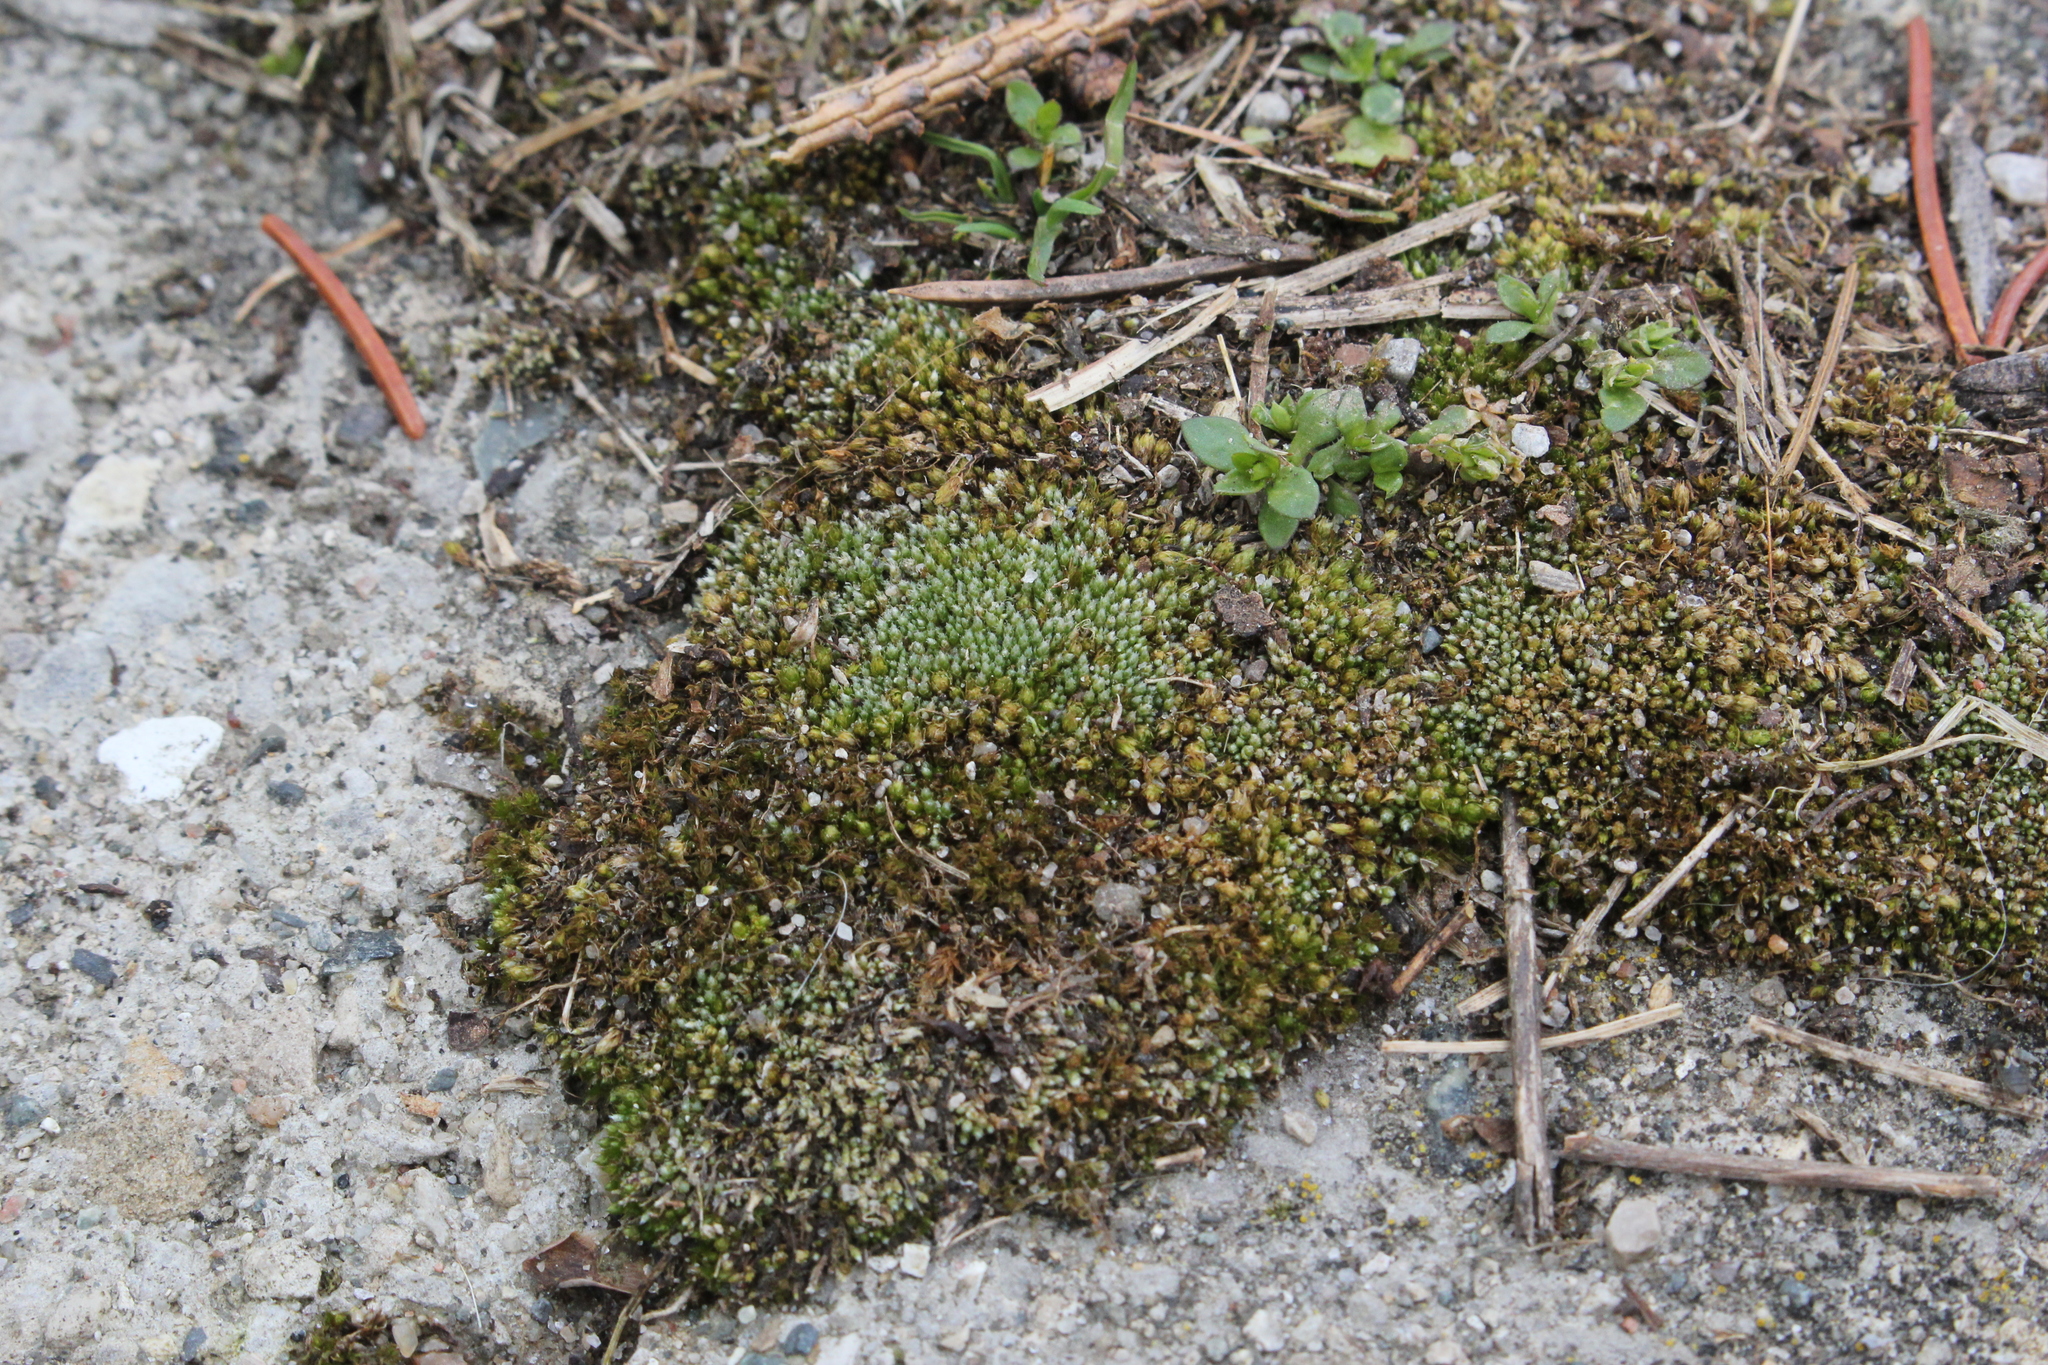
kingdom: Plantae
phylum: Bryophyta
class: Bryopsida
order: Bryales
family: Bryaceae
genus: Bryum
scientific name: Bryum argenteum
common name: Silver-moss
